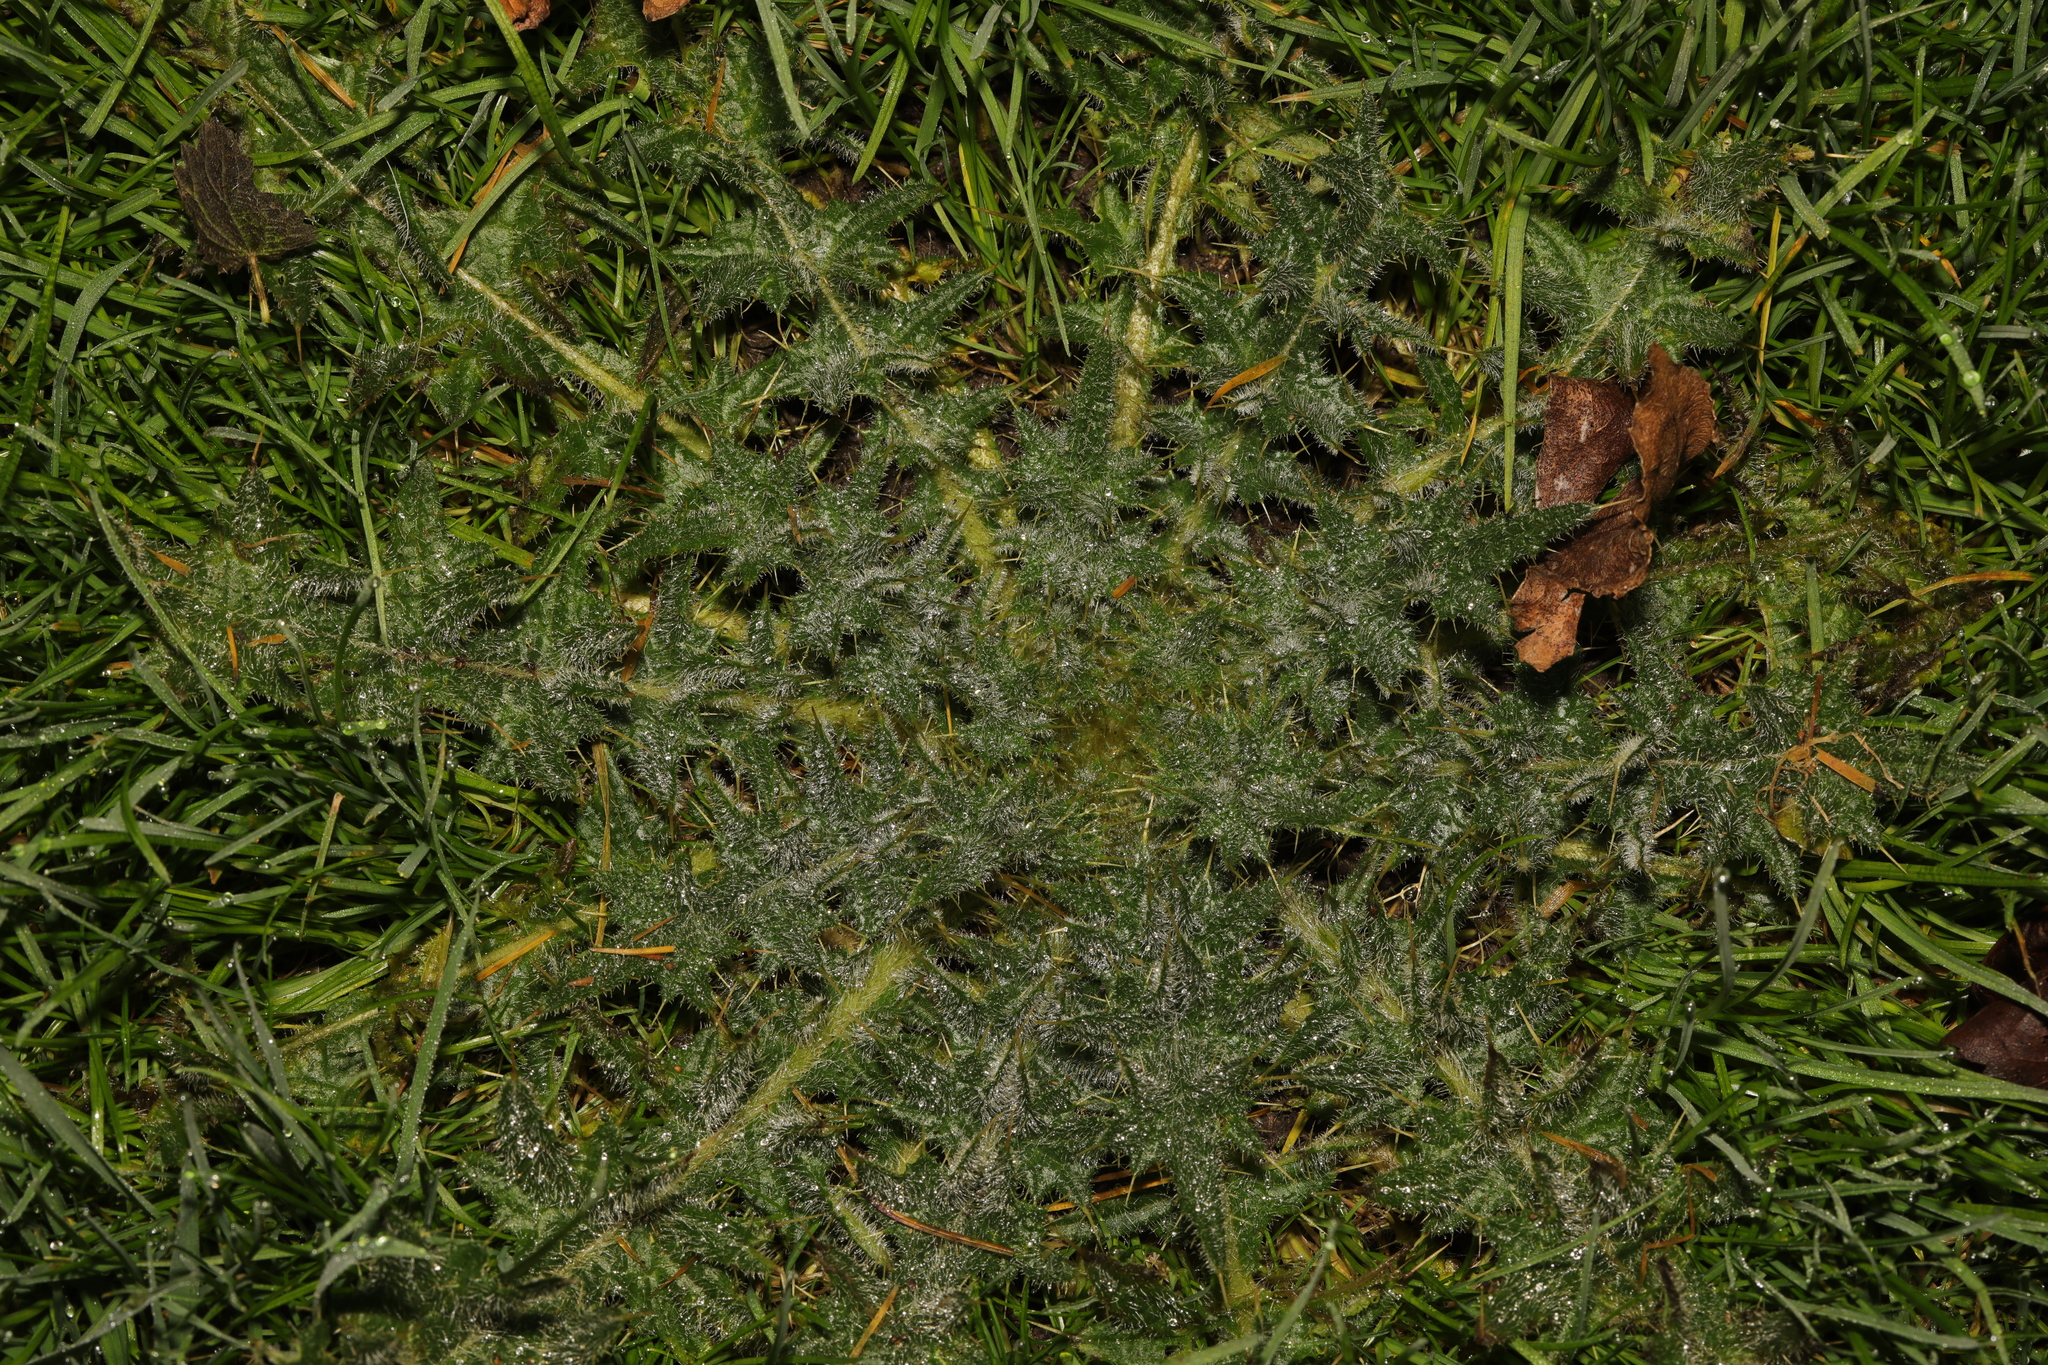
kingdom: Plantae
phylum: Tracheophyta
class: Magnoliopsida
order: Asterales
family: Asteraceae
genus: Cirsium
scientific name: Cirsium vulgare
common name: Bull thistle
